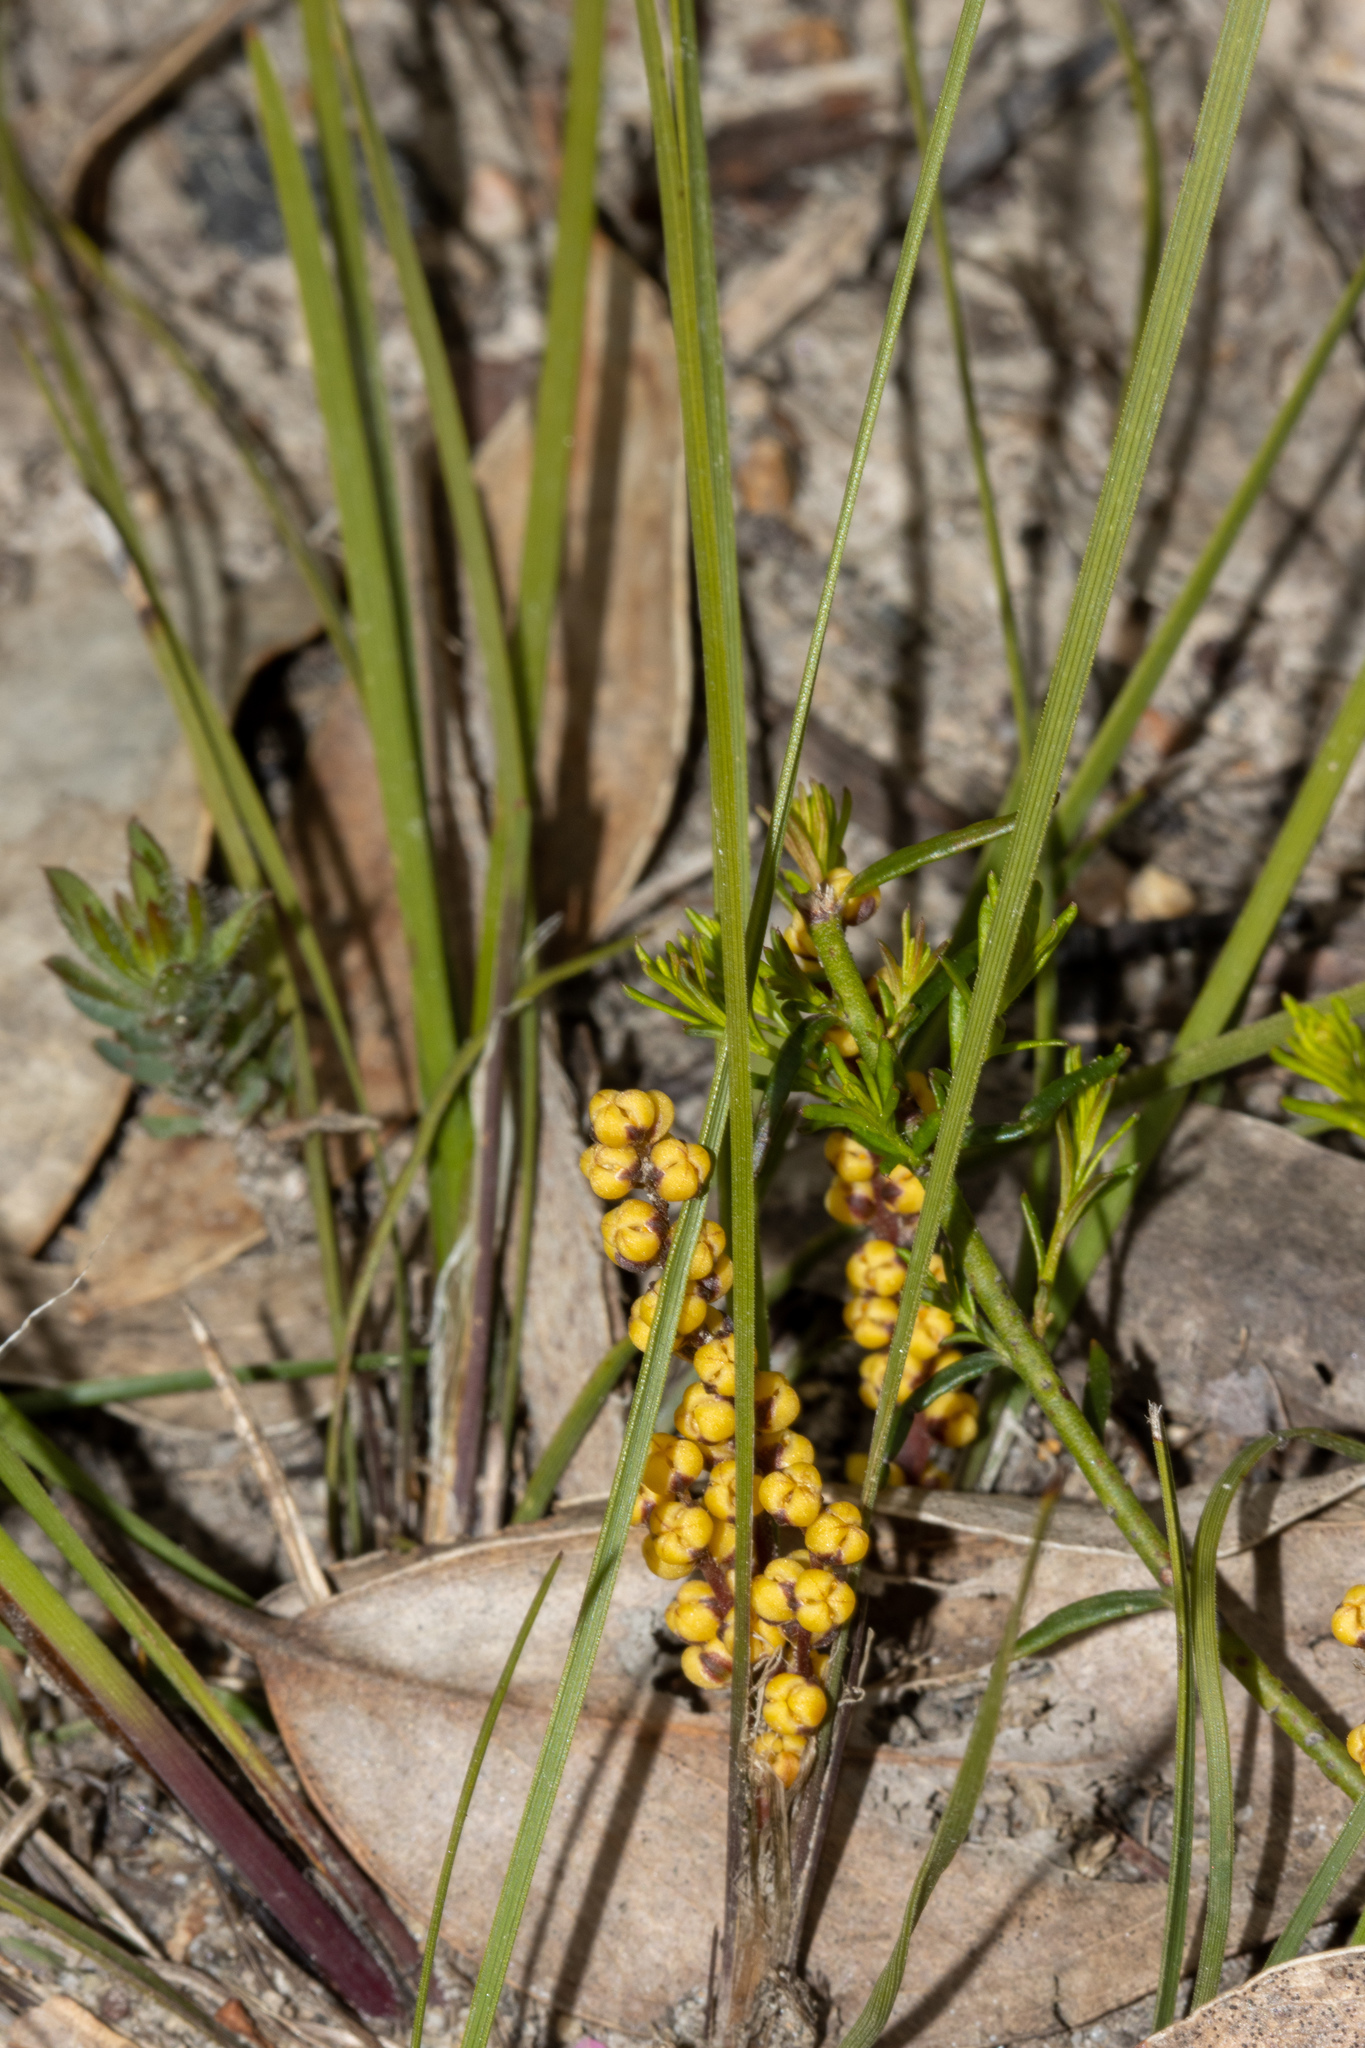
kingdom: Plantae
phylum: Tracheophyta
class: Liliopsida
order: Asparagales
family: Asparagaceae
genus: Lomandra
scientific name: Lomandra sororia
